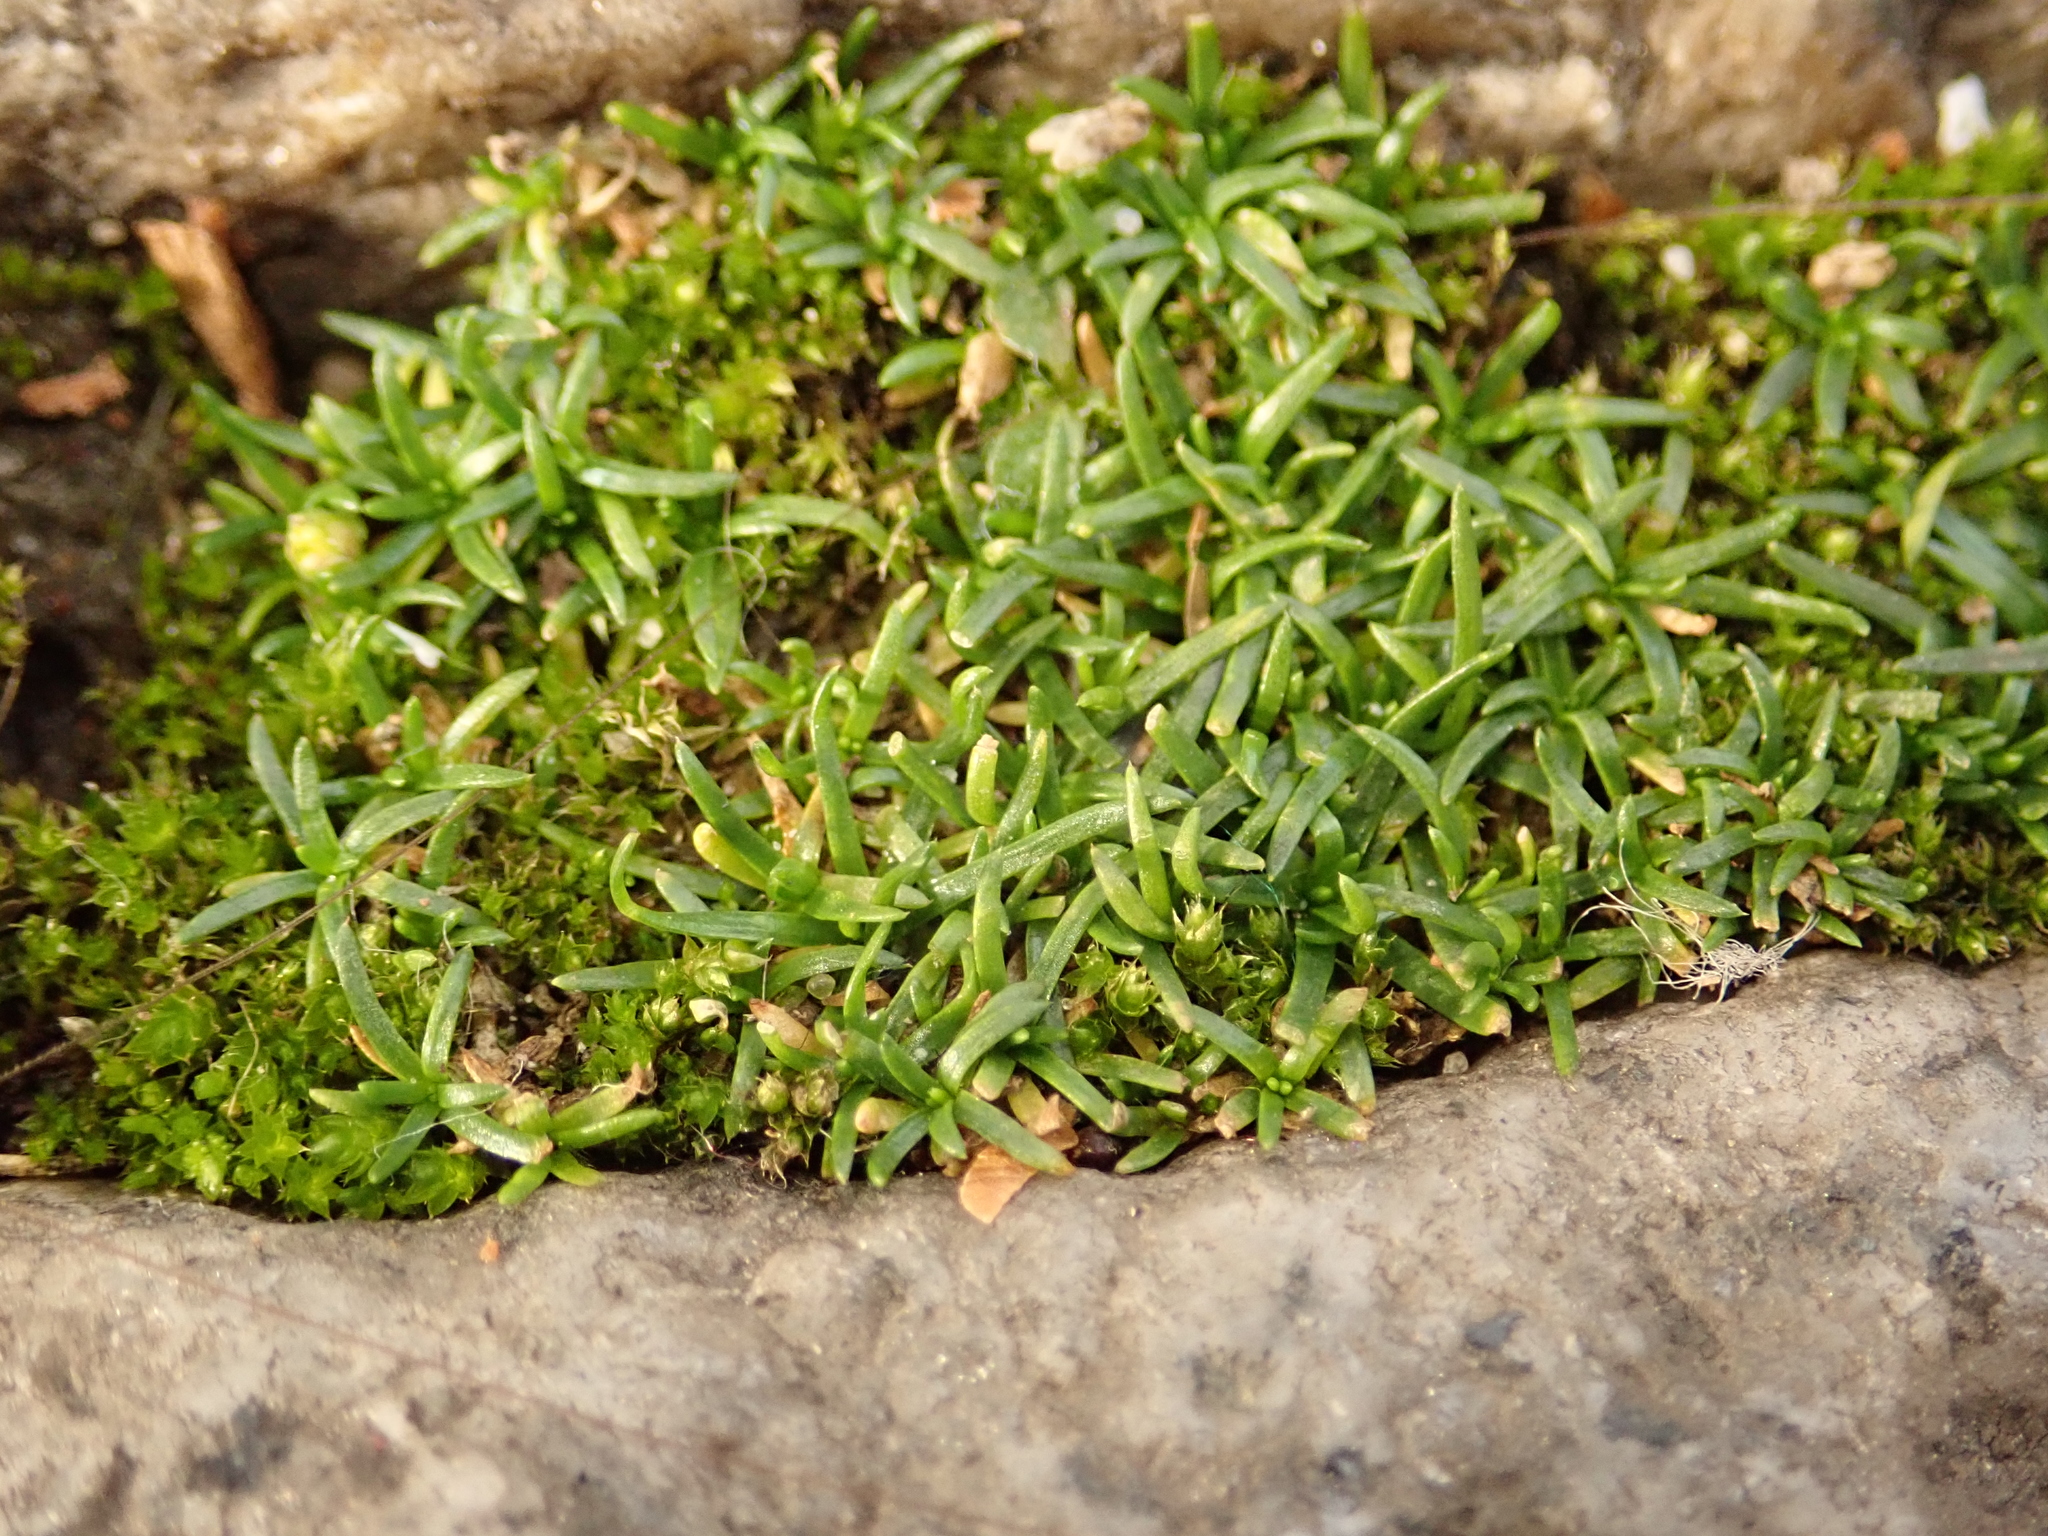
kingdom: Plantae
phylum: Tracheophyta
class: Magnoliopsida
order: Caryophyllales
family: Caryophyllaceae
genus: Sagina
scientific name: Sagina procumbens
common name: Procumbent pearlwort
